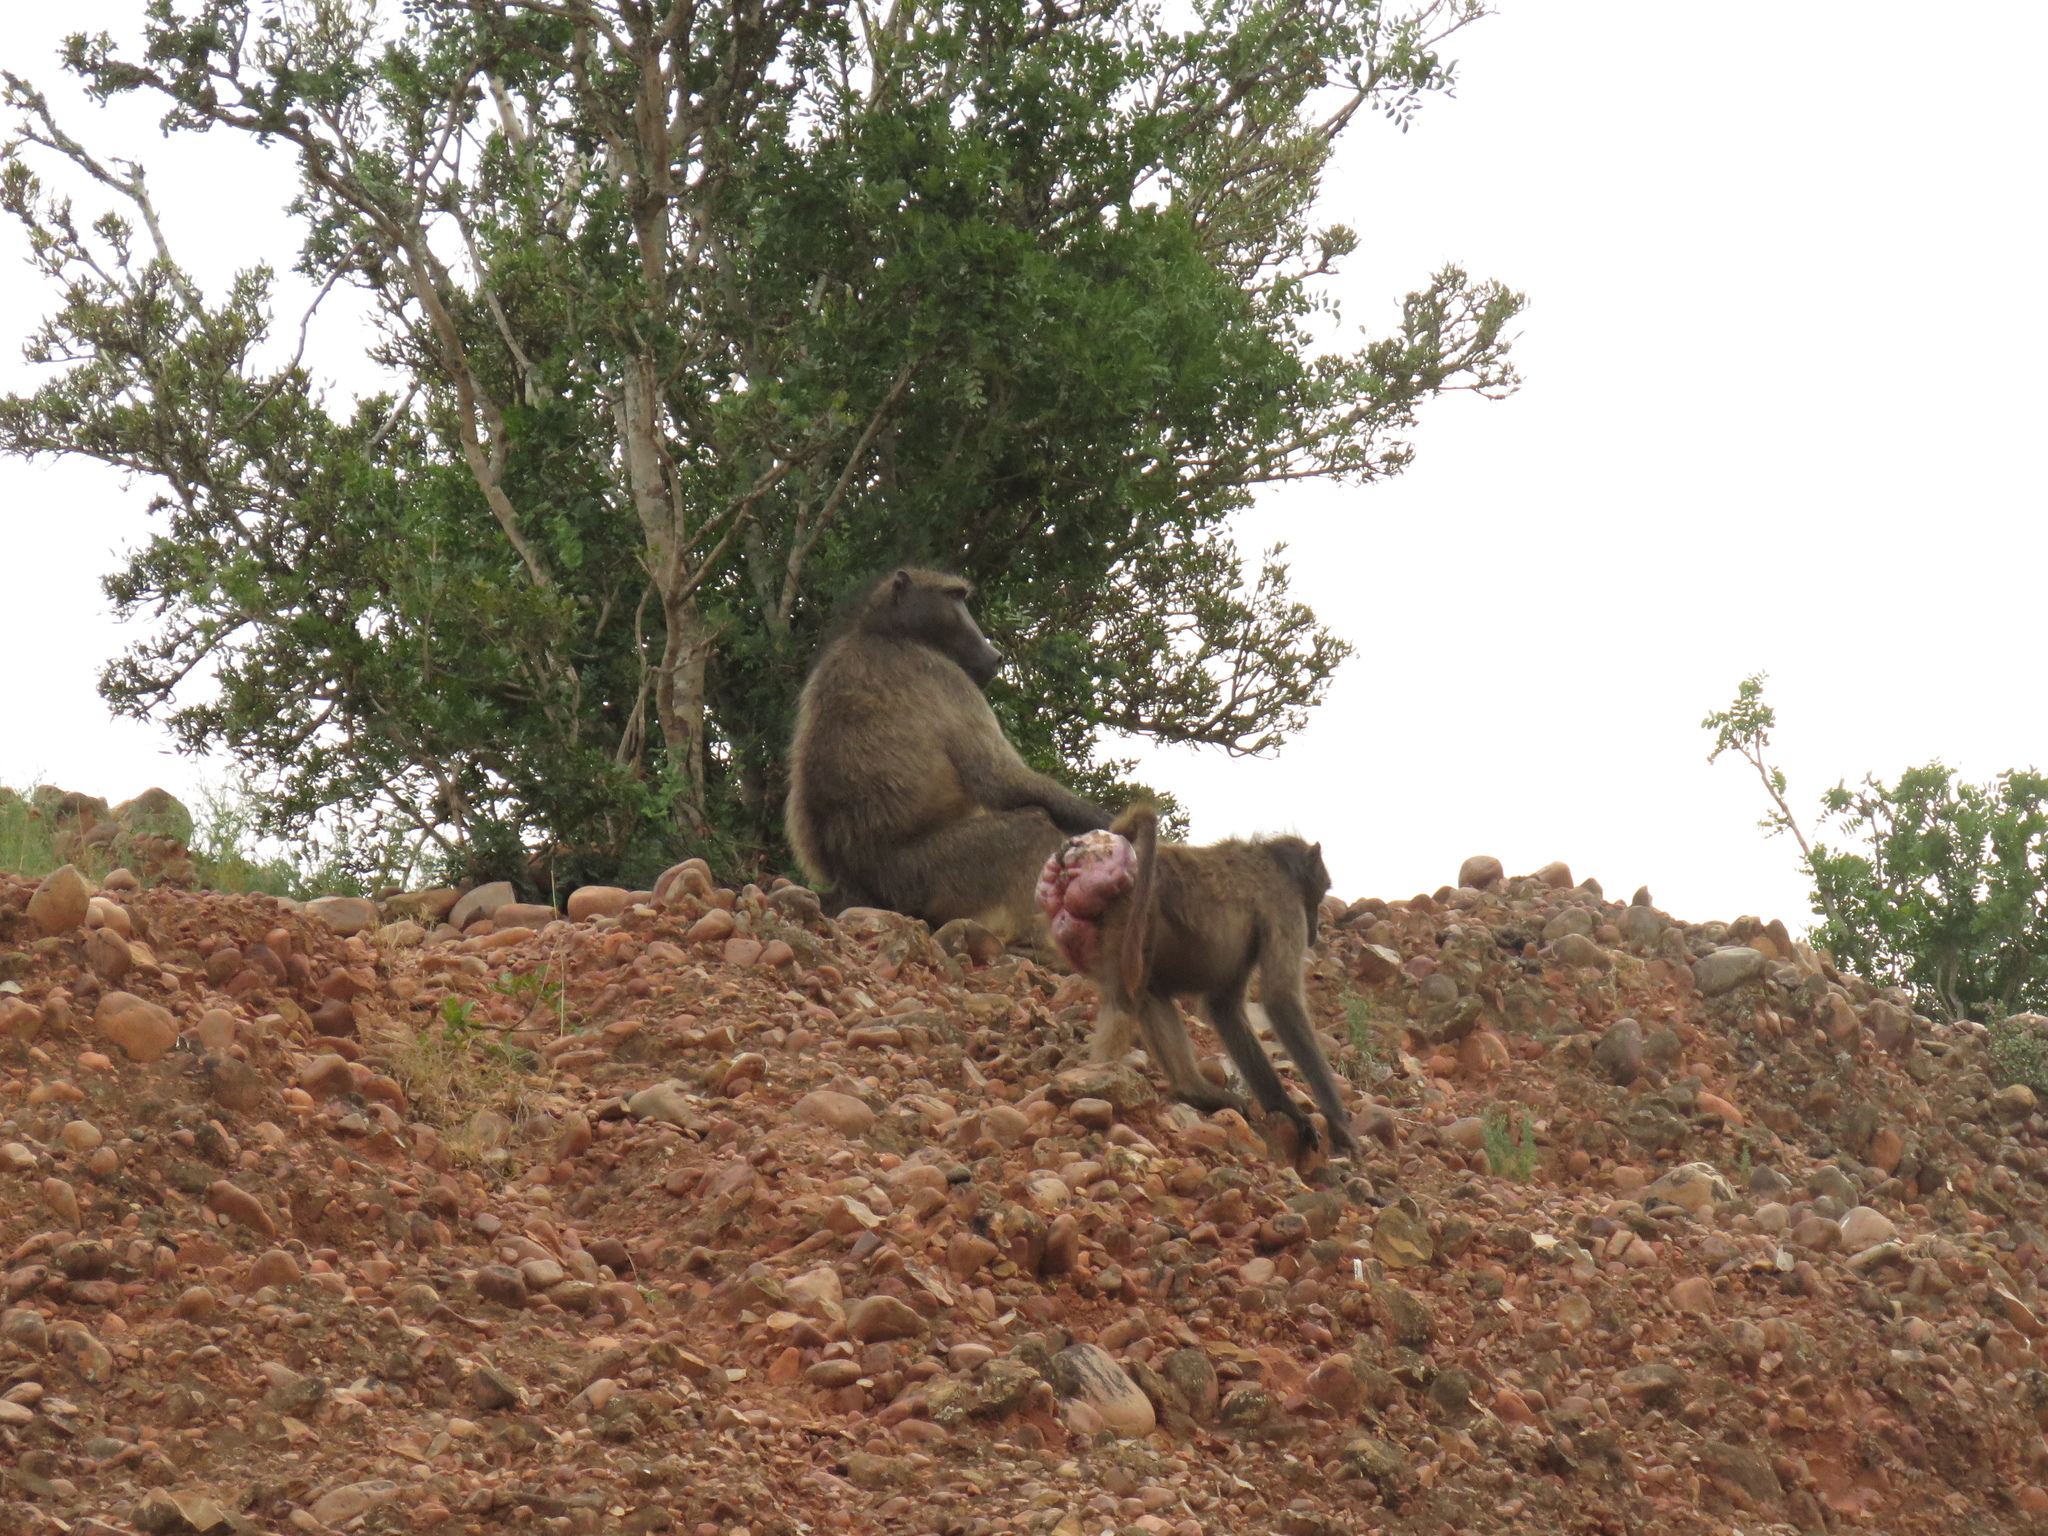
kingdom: Animalia
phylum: Chordata
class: Mammalia
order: Primates
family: Cercopithecidae
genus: Papio
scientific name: Papio ursinus
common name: Chacma baboon
